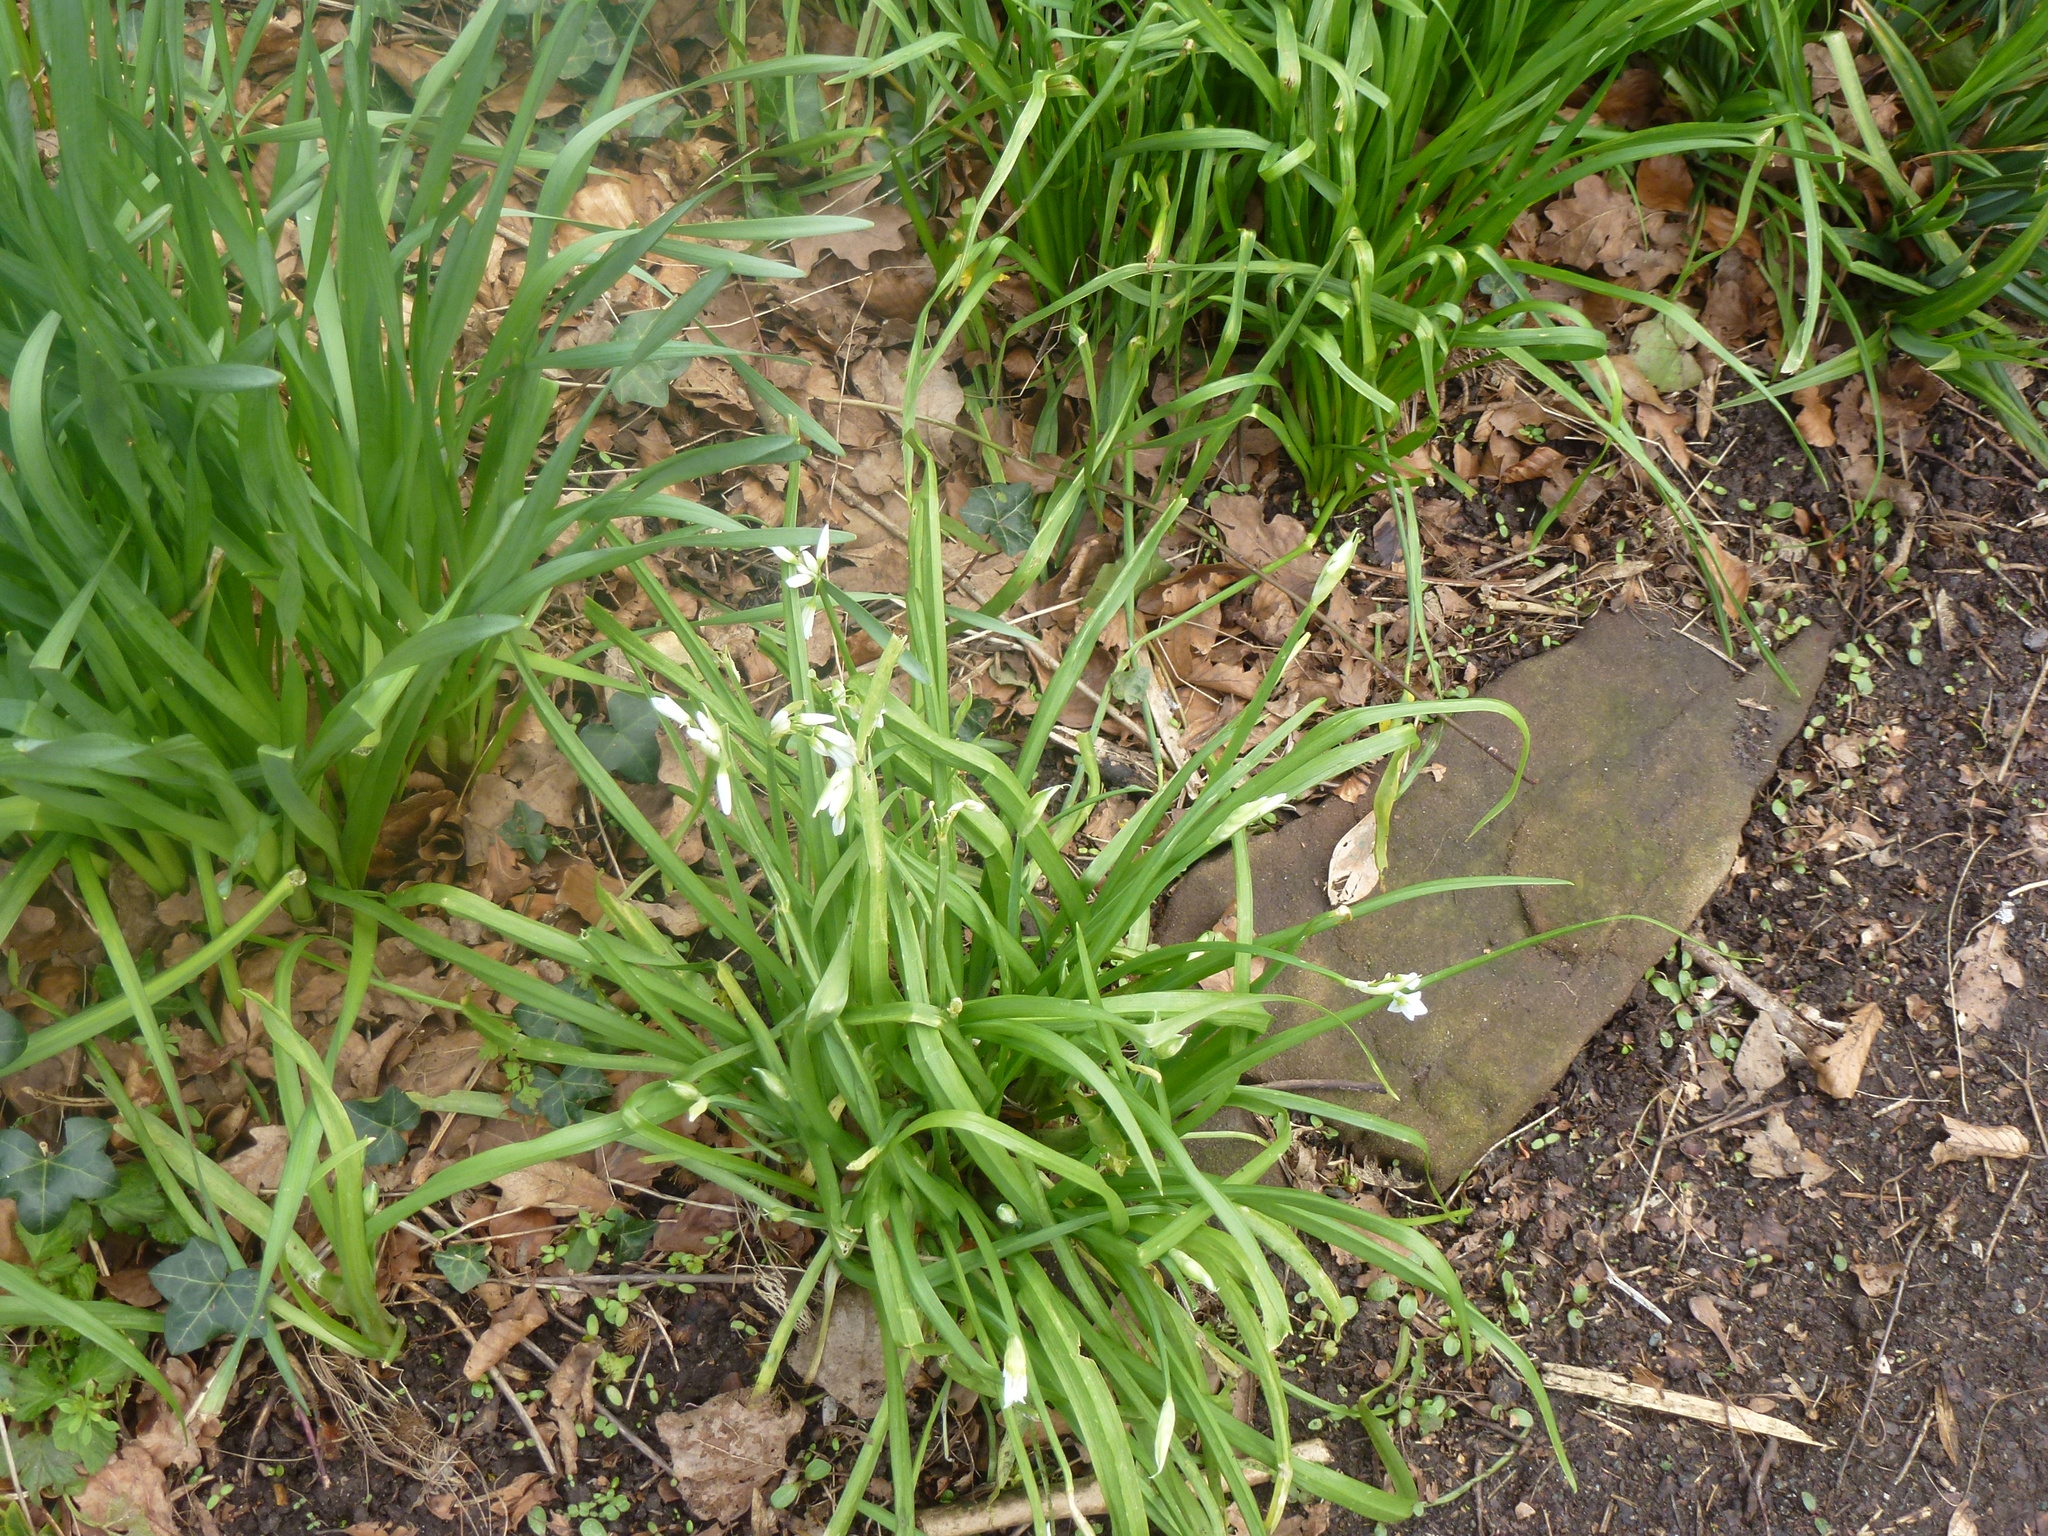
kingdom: Plantae
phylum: Tracheophyta
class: Liliopsida
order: Asparagales
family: Amaryllidaceae
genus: Allium
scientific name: Allium triquetrum
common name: Three-cornered garlic
